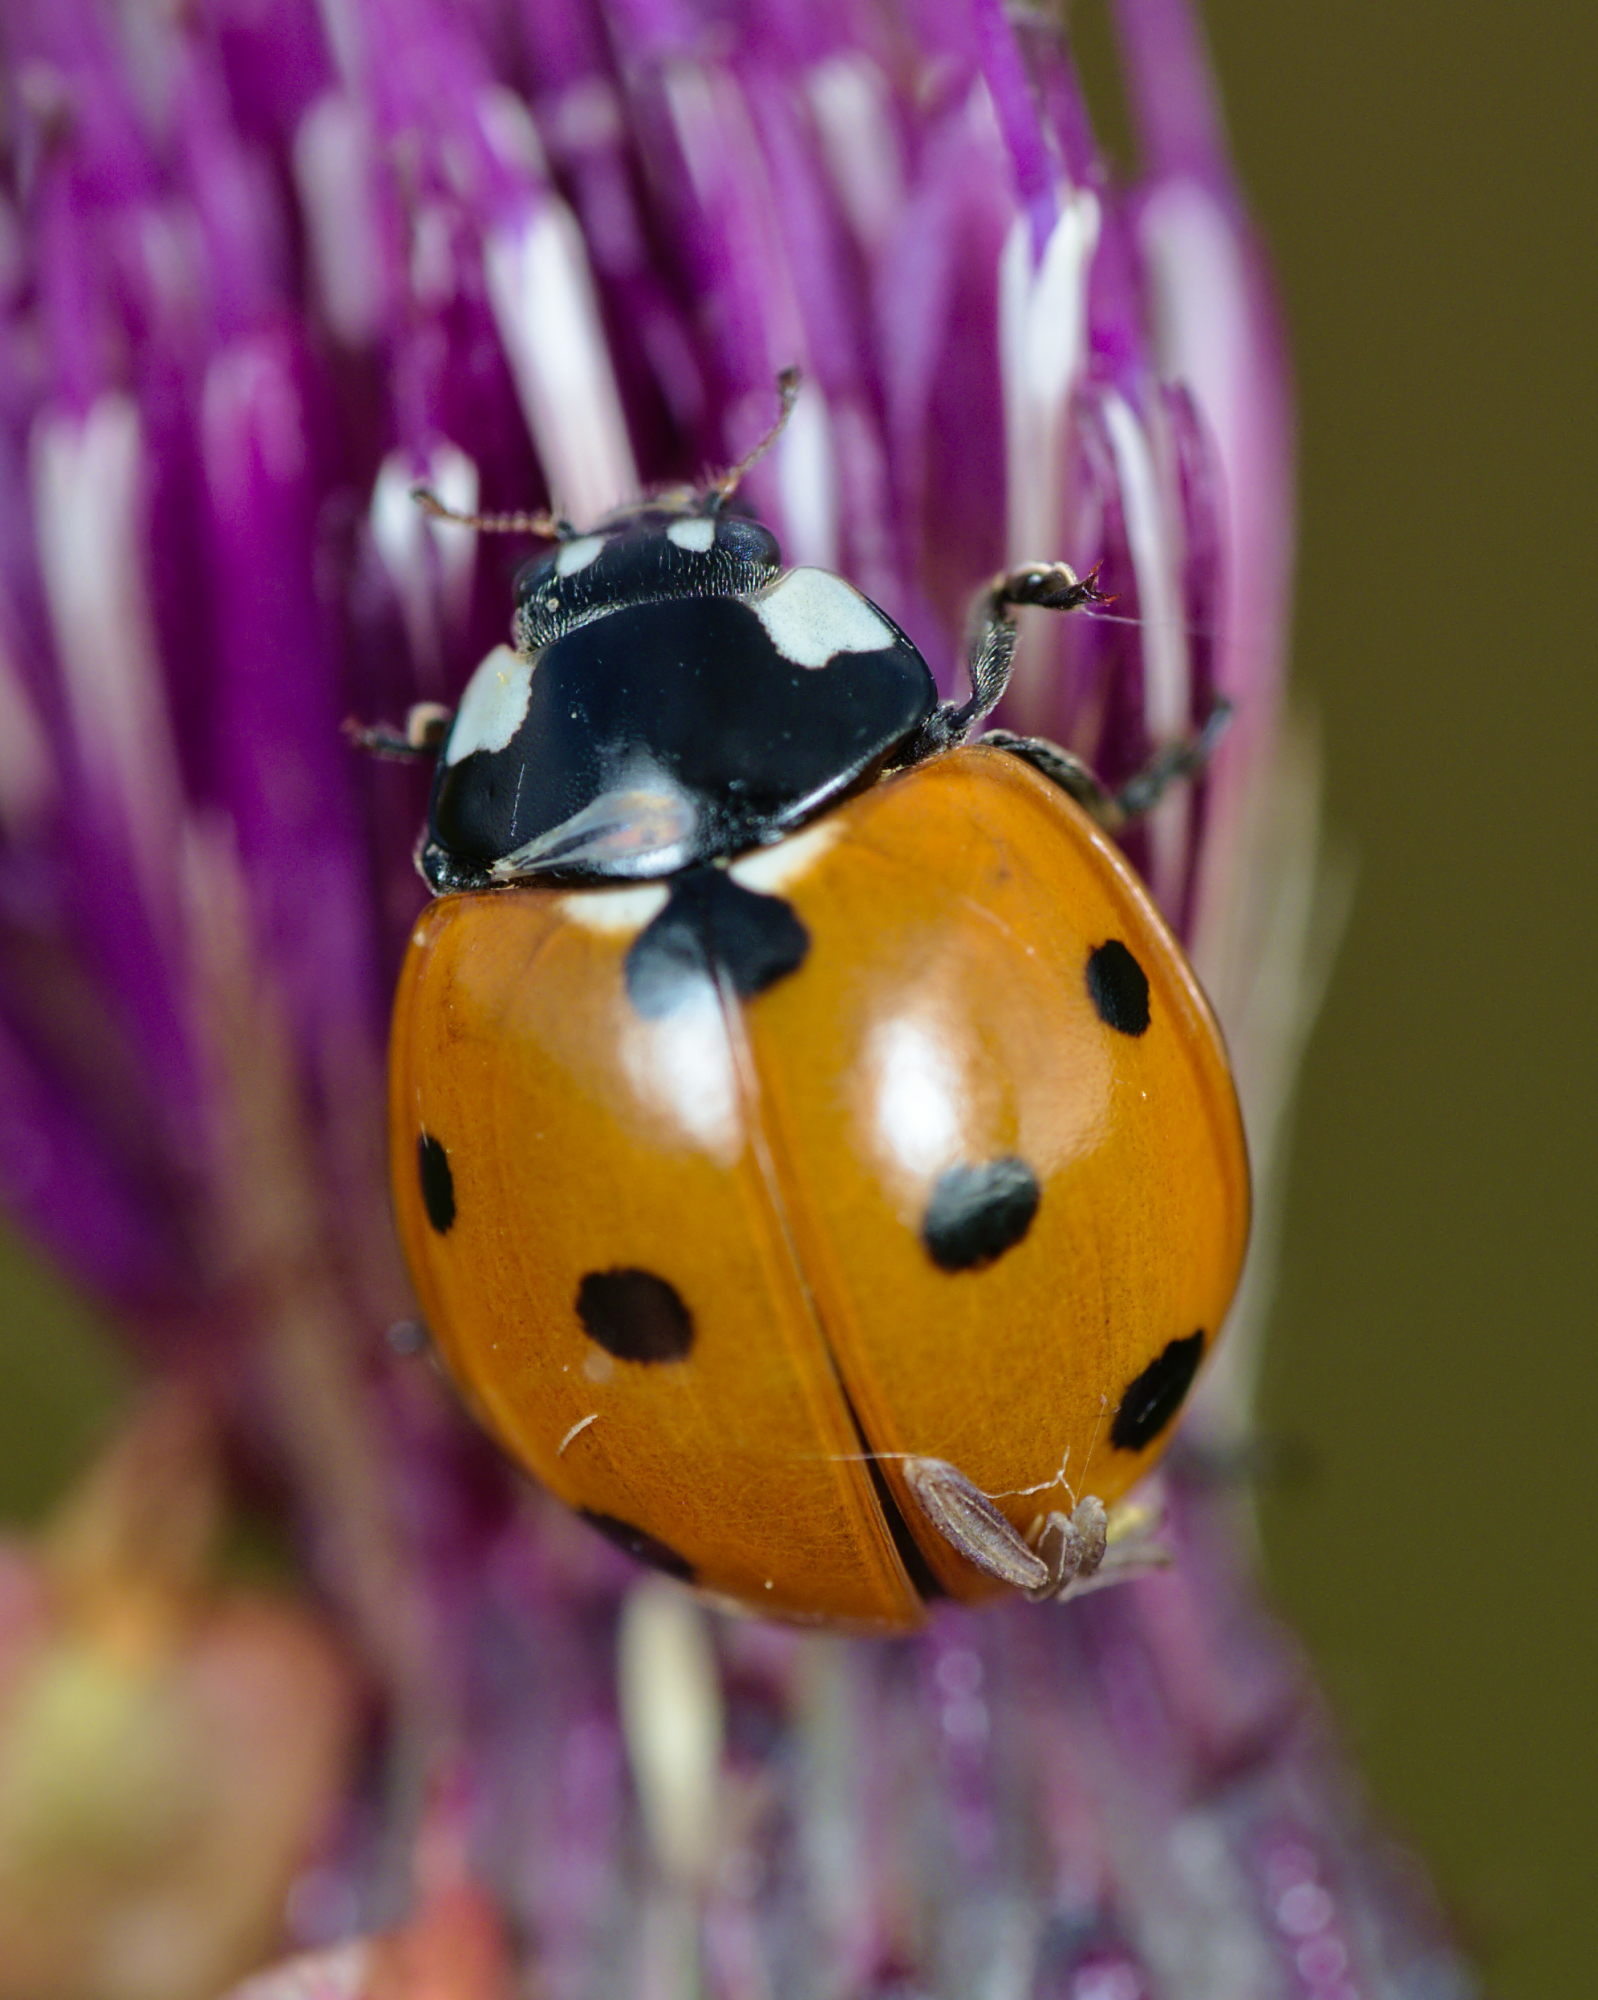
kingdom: Animalia
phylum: Arthropoda
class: Insecta
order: Coleoptera
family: Coccinellidae
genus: Coccinella
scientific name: Coccinella septempunctata
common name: Sevenspotted lady beetle
